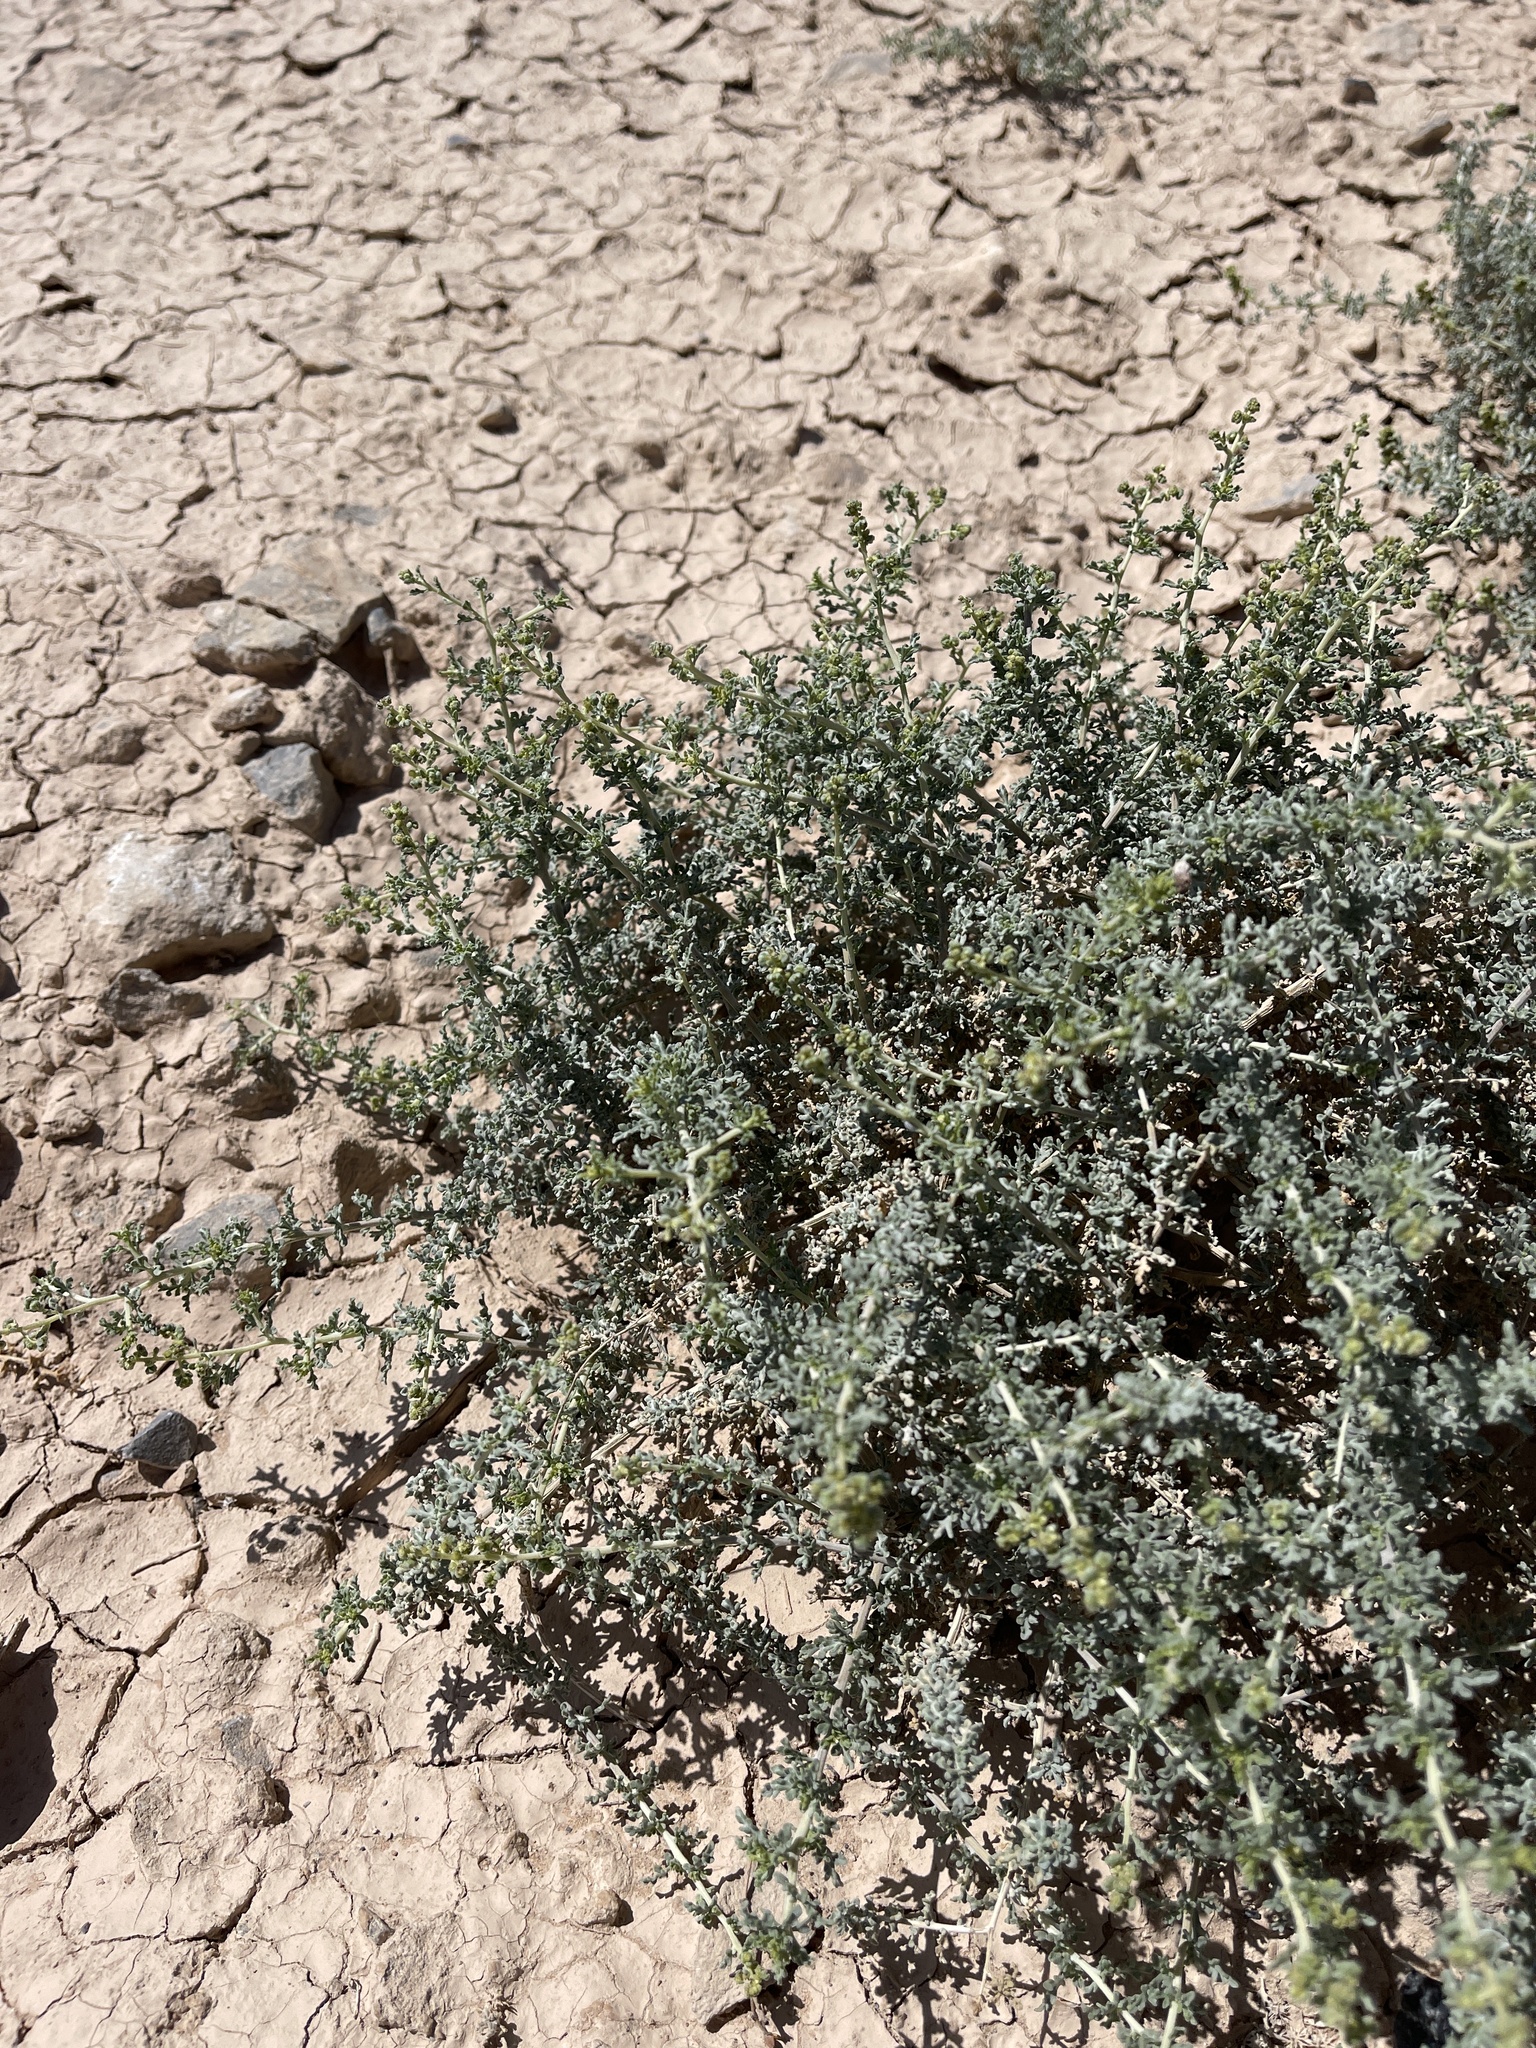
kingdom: Plantae
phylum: Tracheophyta
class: Magnoliopsida
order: Asterales
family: Asteraceae
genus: Ambrosia
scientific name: Ambrosia dumosa
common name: Bur-sage
